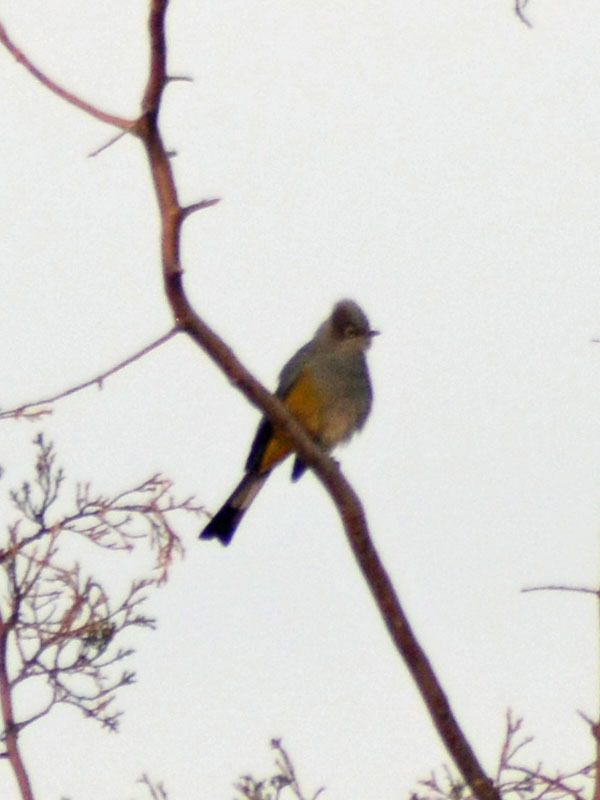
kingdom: Animalia
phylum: Chordata
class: Aves
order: Passeriformes
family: Ptilogonatidae
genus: Ptilogonys
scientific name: Ptilogonys cinereus
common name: Gray silky-flycatcher
